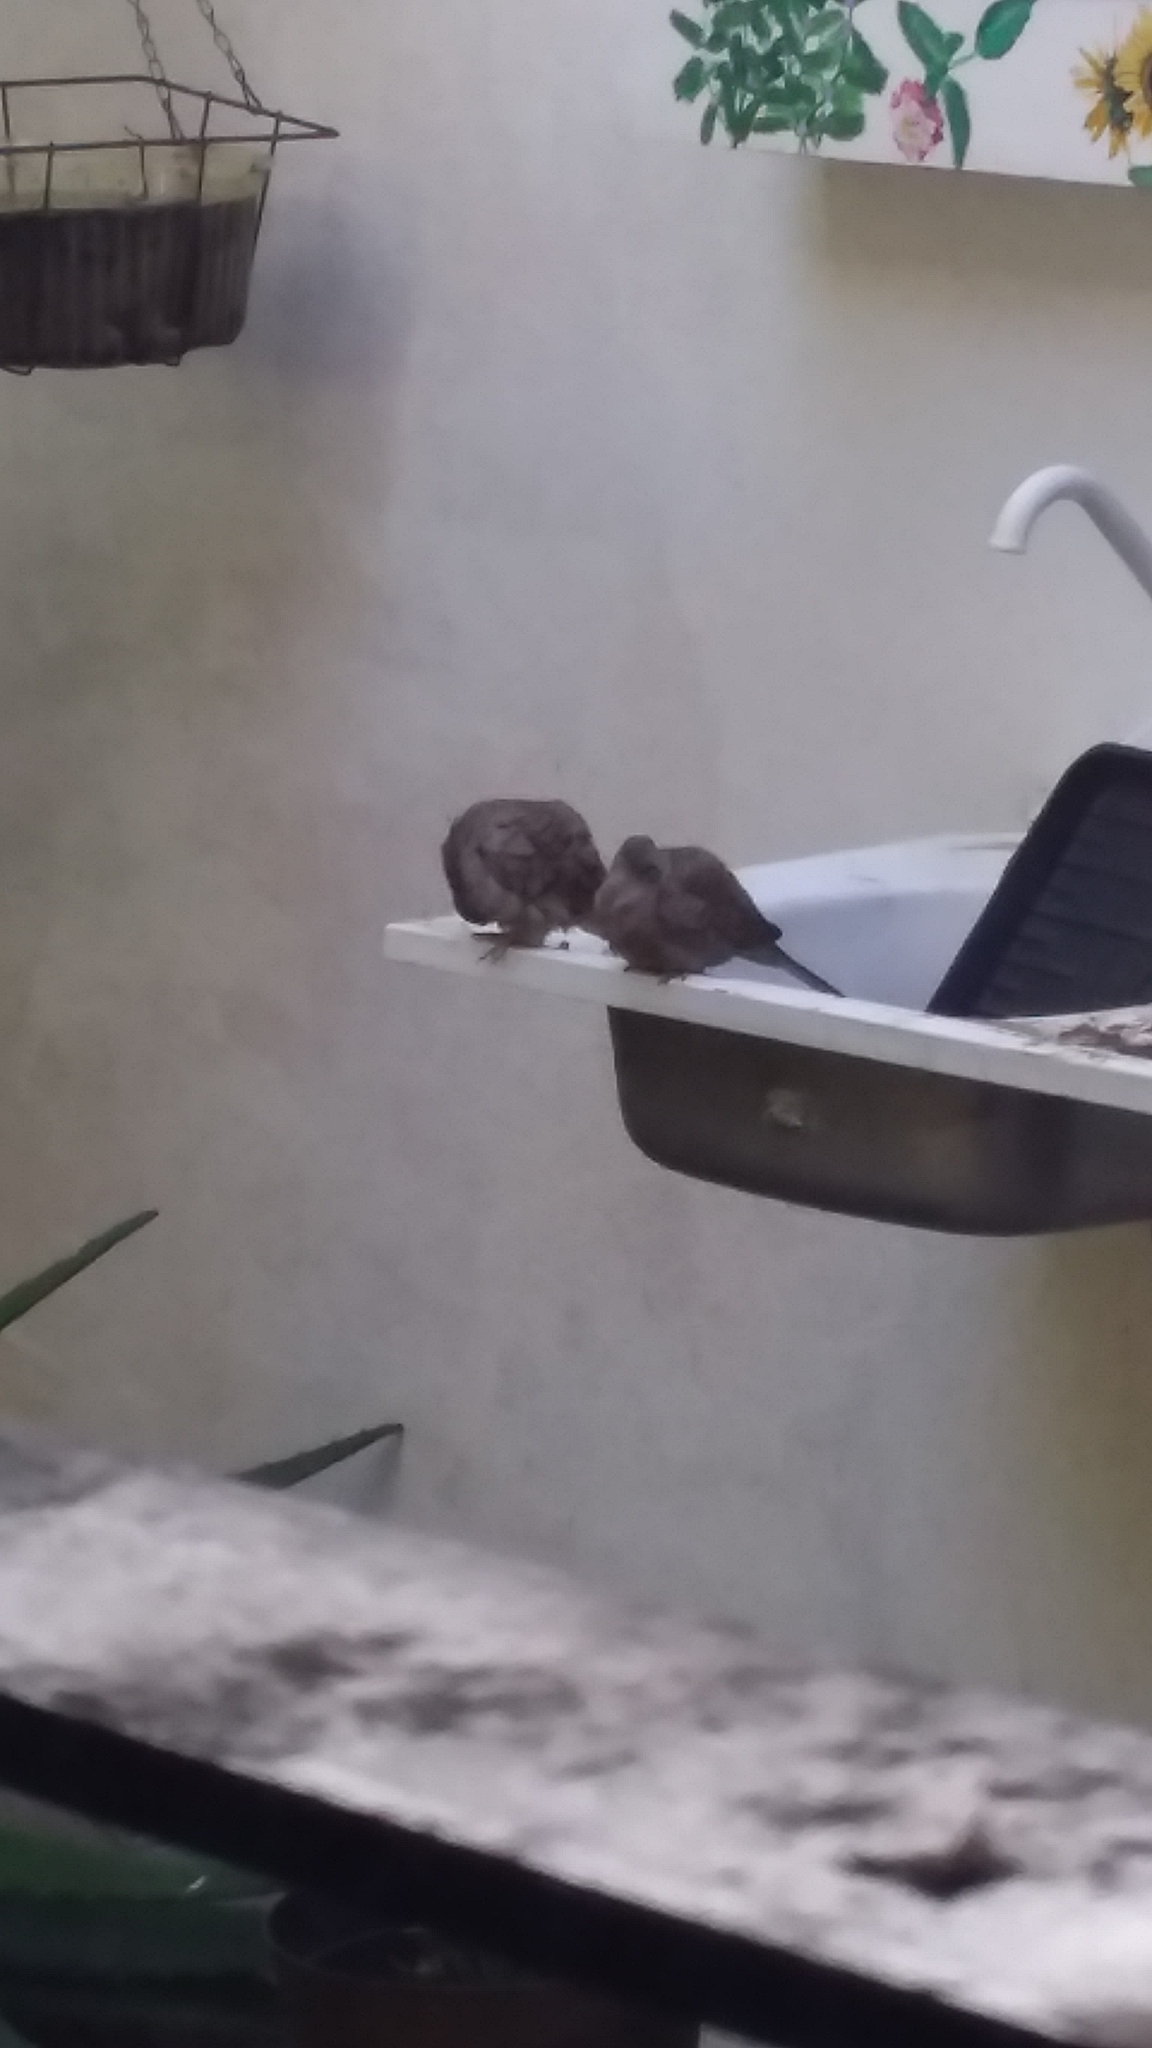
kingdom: Animalia
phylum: Chordata
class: Aves
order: Columbiformes
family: Columbidae
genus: Columbina
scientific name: Columbina inca
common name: Inca dove
